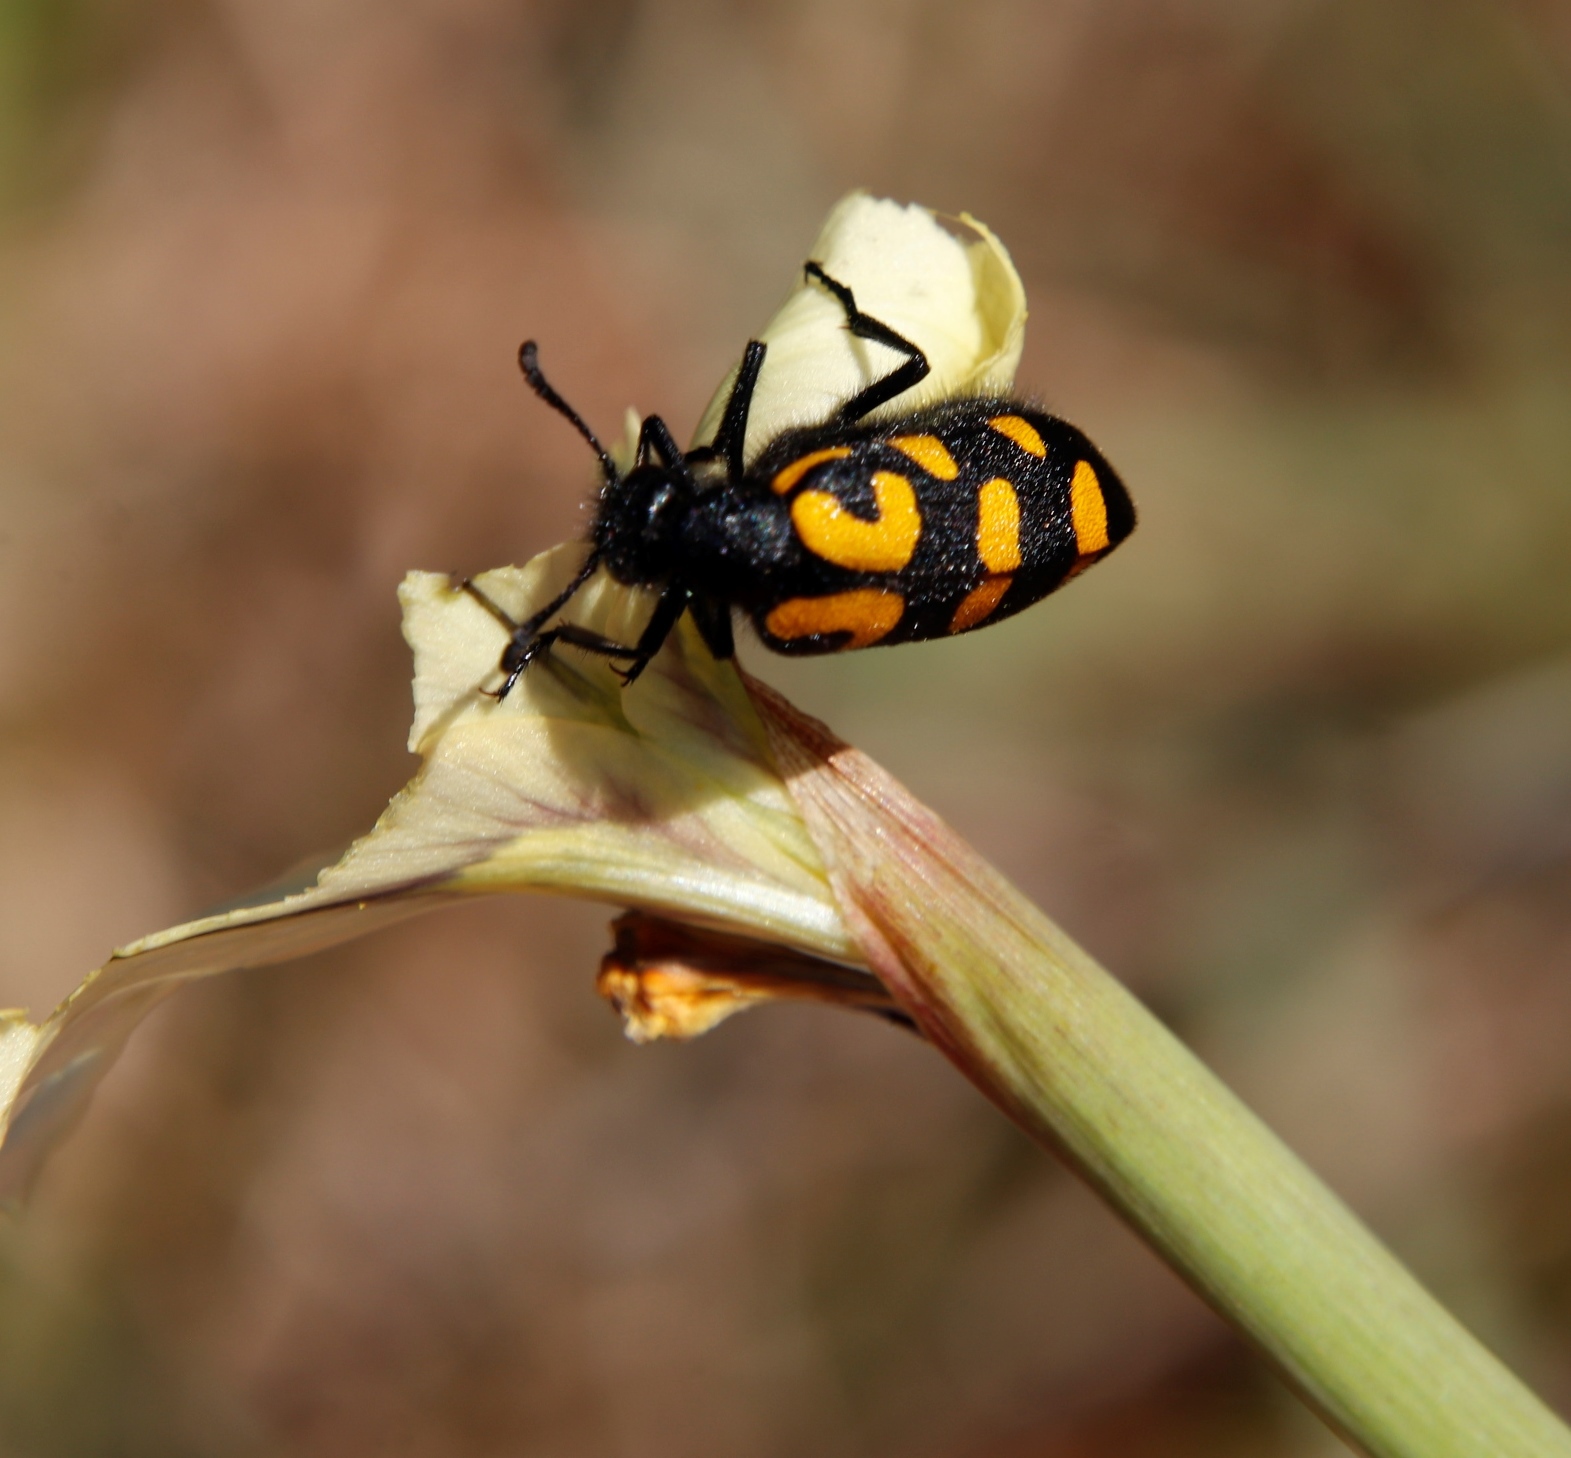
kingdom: Animalia
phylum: Arthropoda
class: Insecta
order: Coleoptera
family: Meloidae
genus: Ceroctis
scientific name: Ceroctis capensis
